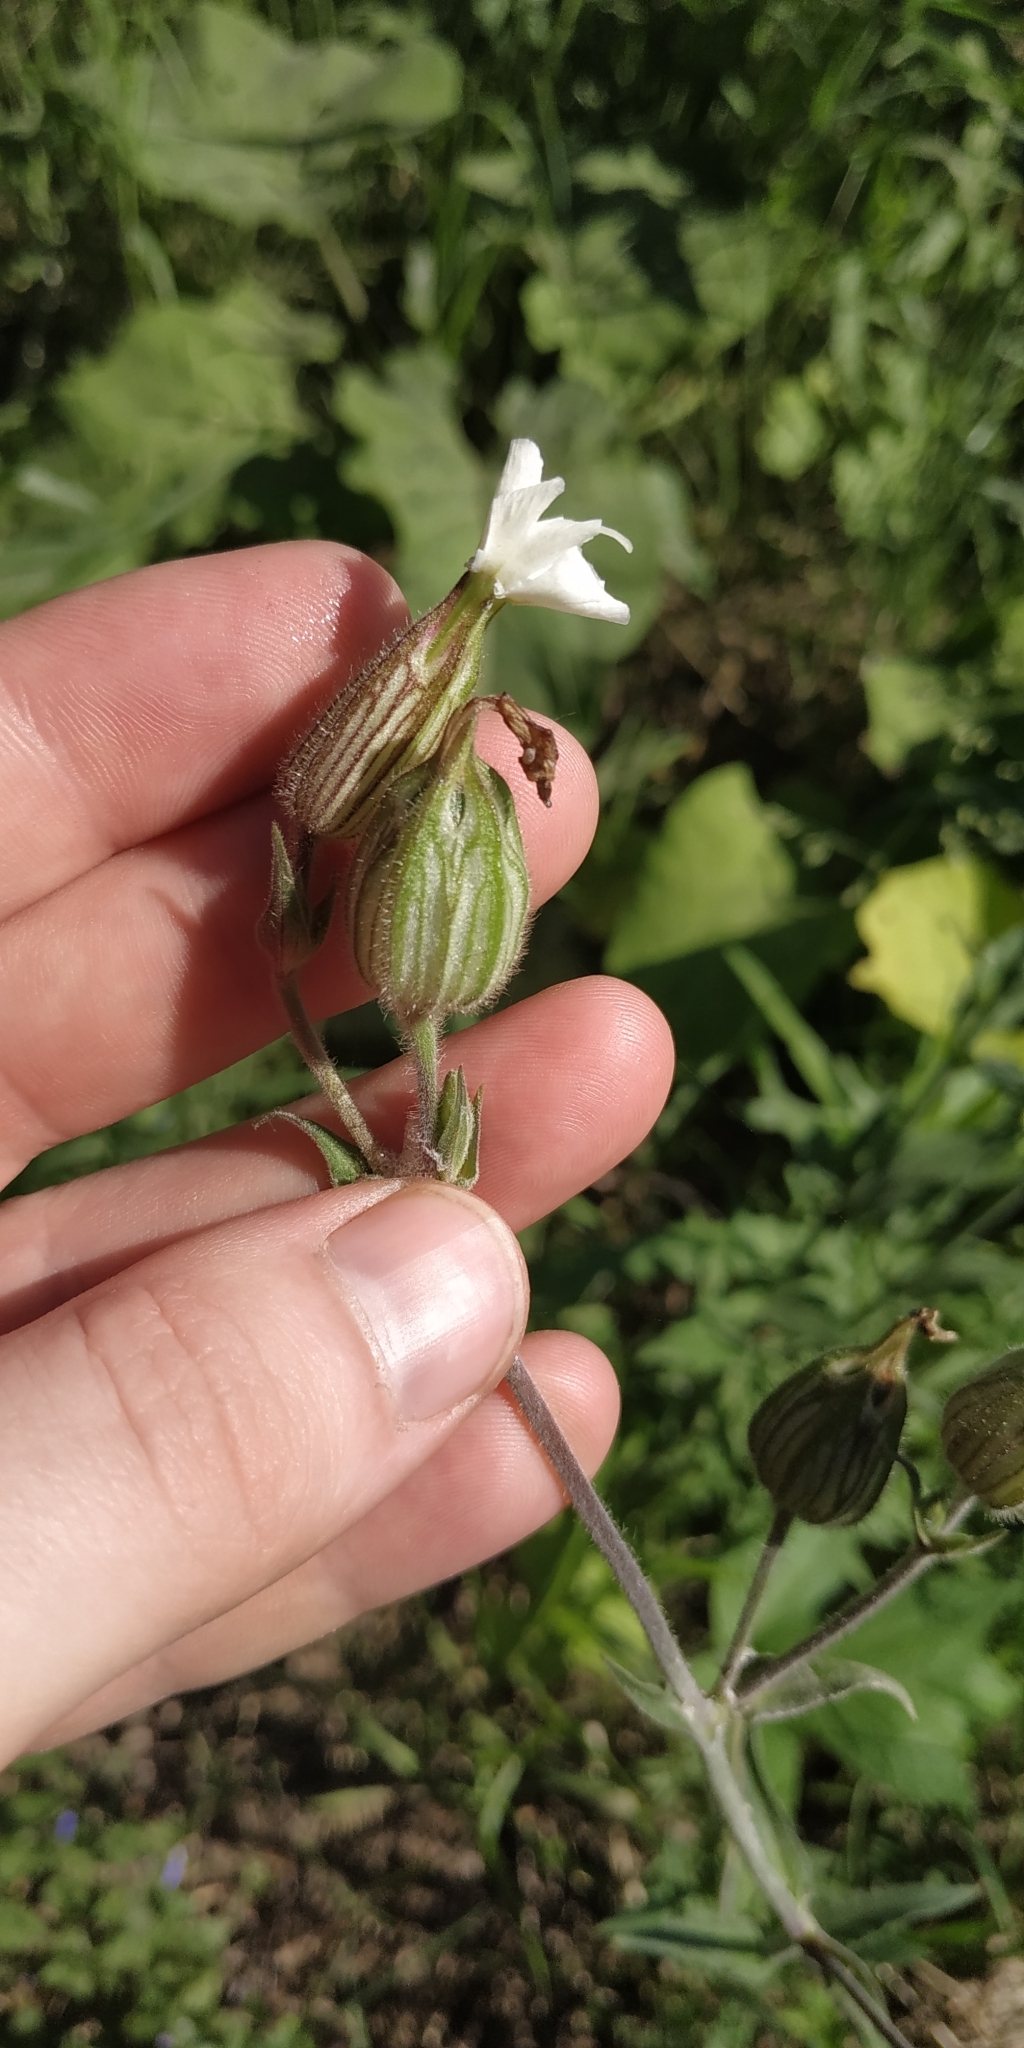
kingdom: Plantae
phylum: Tracheophyta
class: Magnoliopsida
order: Caryophyllales
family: Caryophyllaceae
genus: Silene
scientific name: Silene latifolia
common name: White campion
